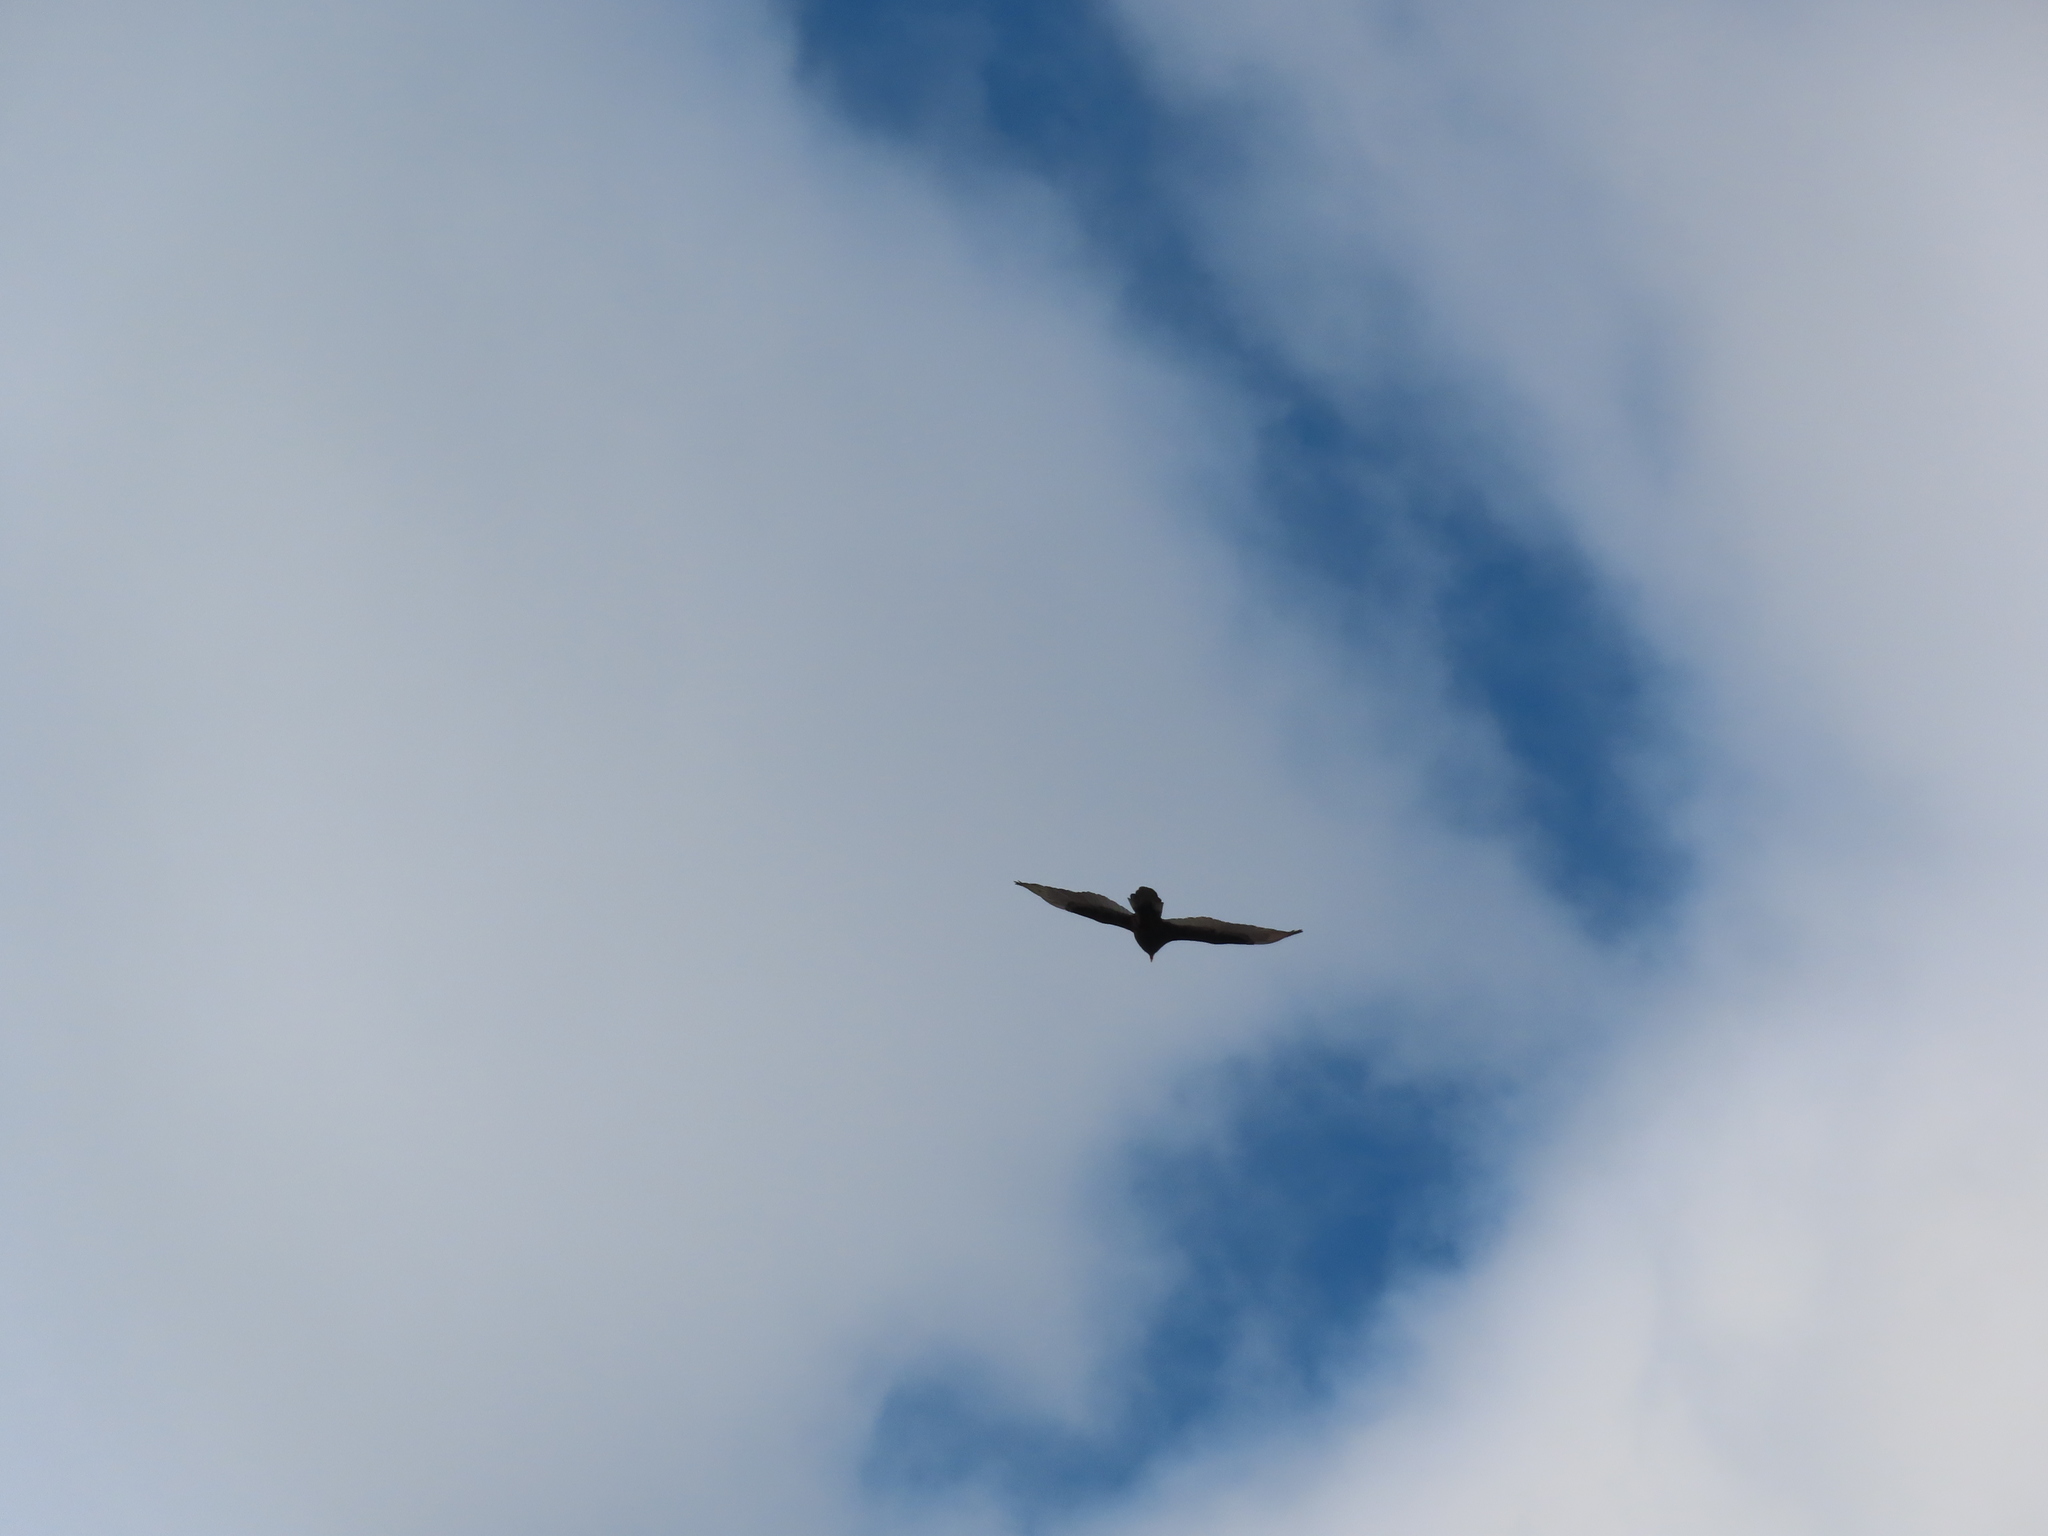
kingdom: Animalia
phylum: Chordata
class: Aves
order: Accipitriformes
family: Cathartidae
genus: Cathartes
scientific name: Cathartes aura
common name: Turkey vulture
